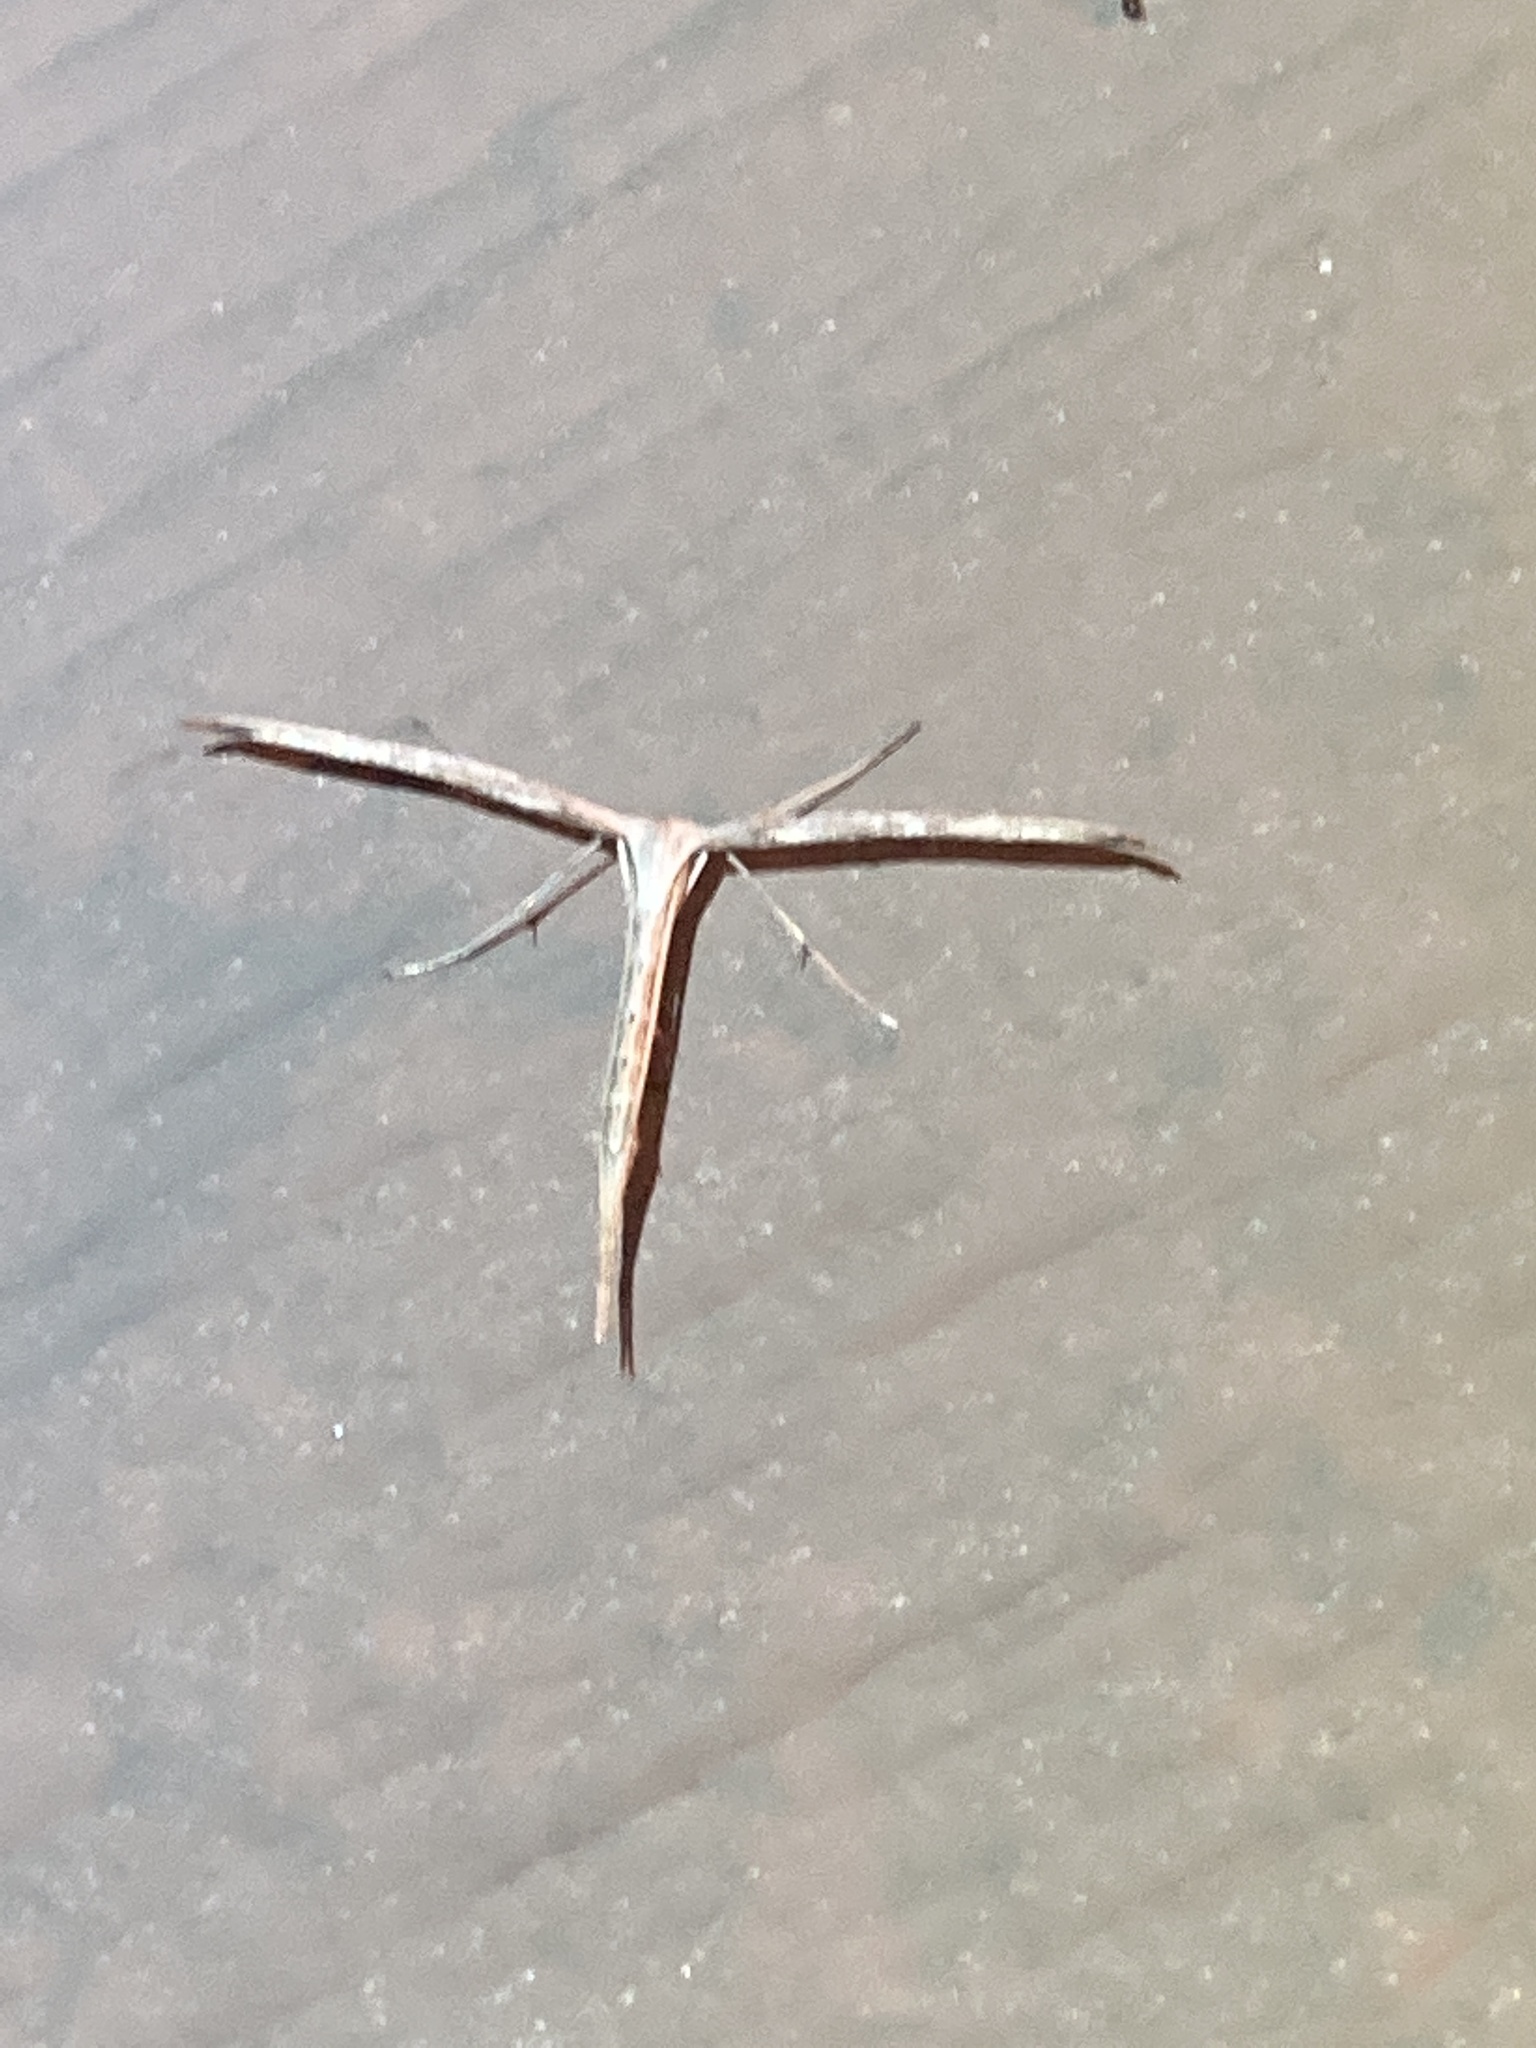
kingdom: Animalia
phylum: Arthropoda
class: Insecta
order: Lepidoptera
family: Pterophoridae
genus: Emmelina
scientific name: Emmelina monodactyla
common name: Common plume
